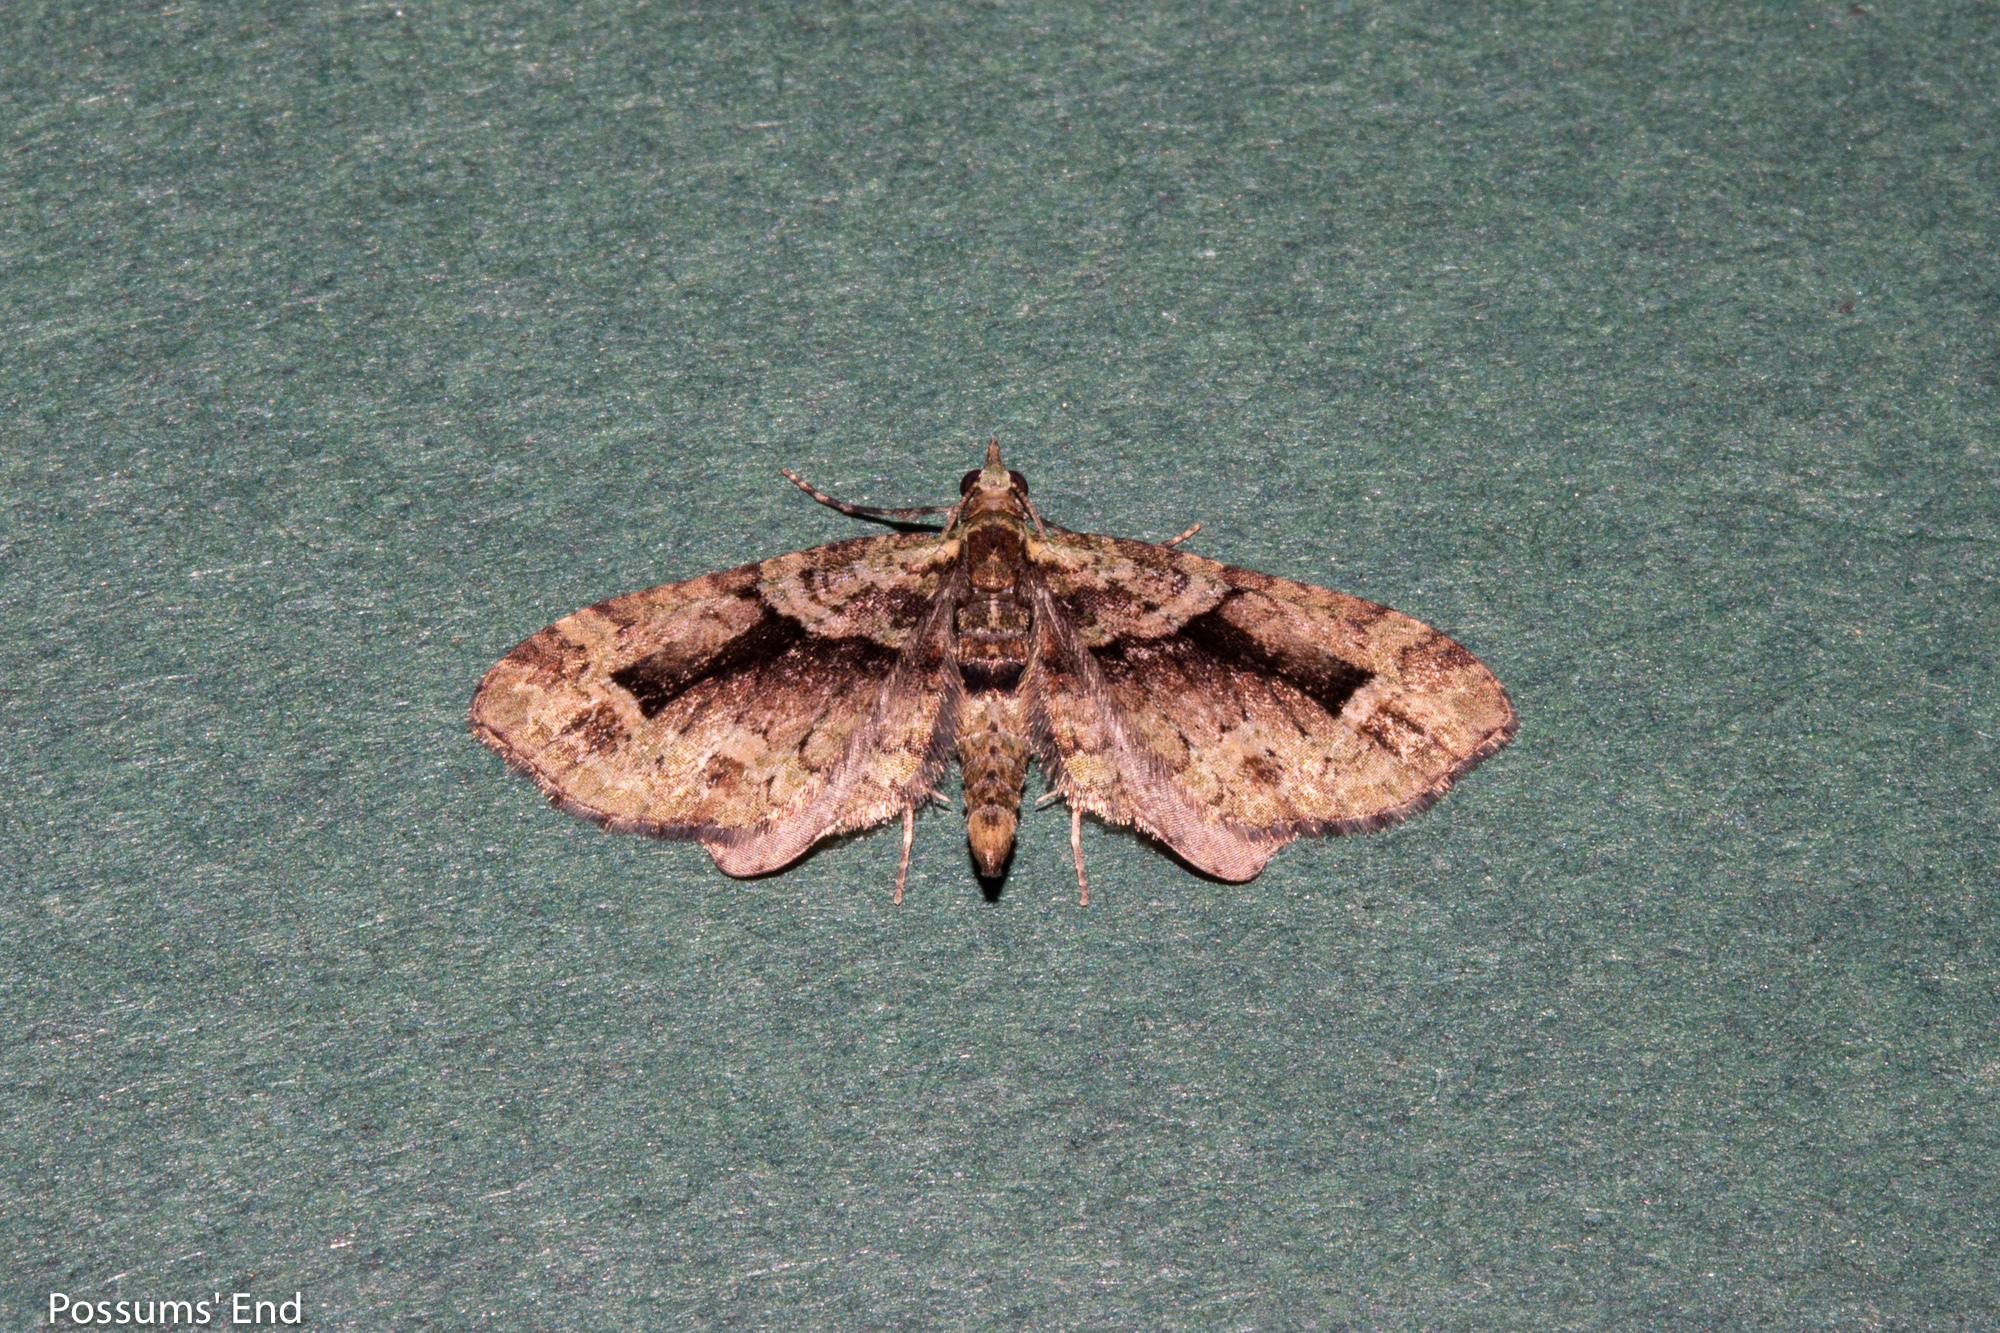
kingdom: Animalia
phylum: Arthropoda
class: Insecta
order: Lepidoptera
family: Geometridae
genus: Pasiphila
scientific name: Pasiphila suffusa
